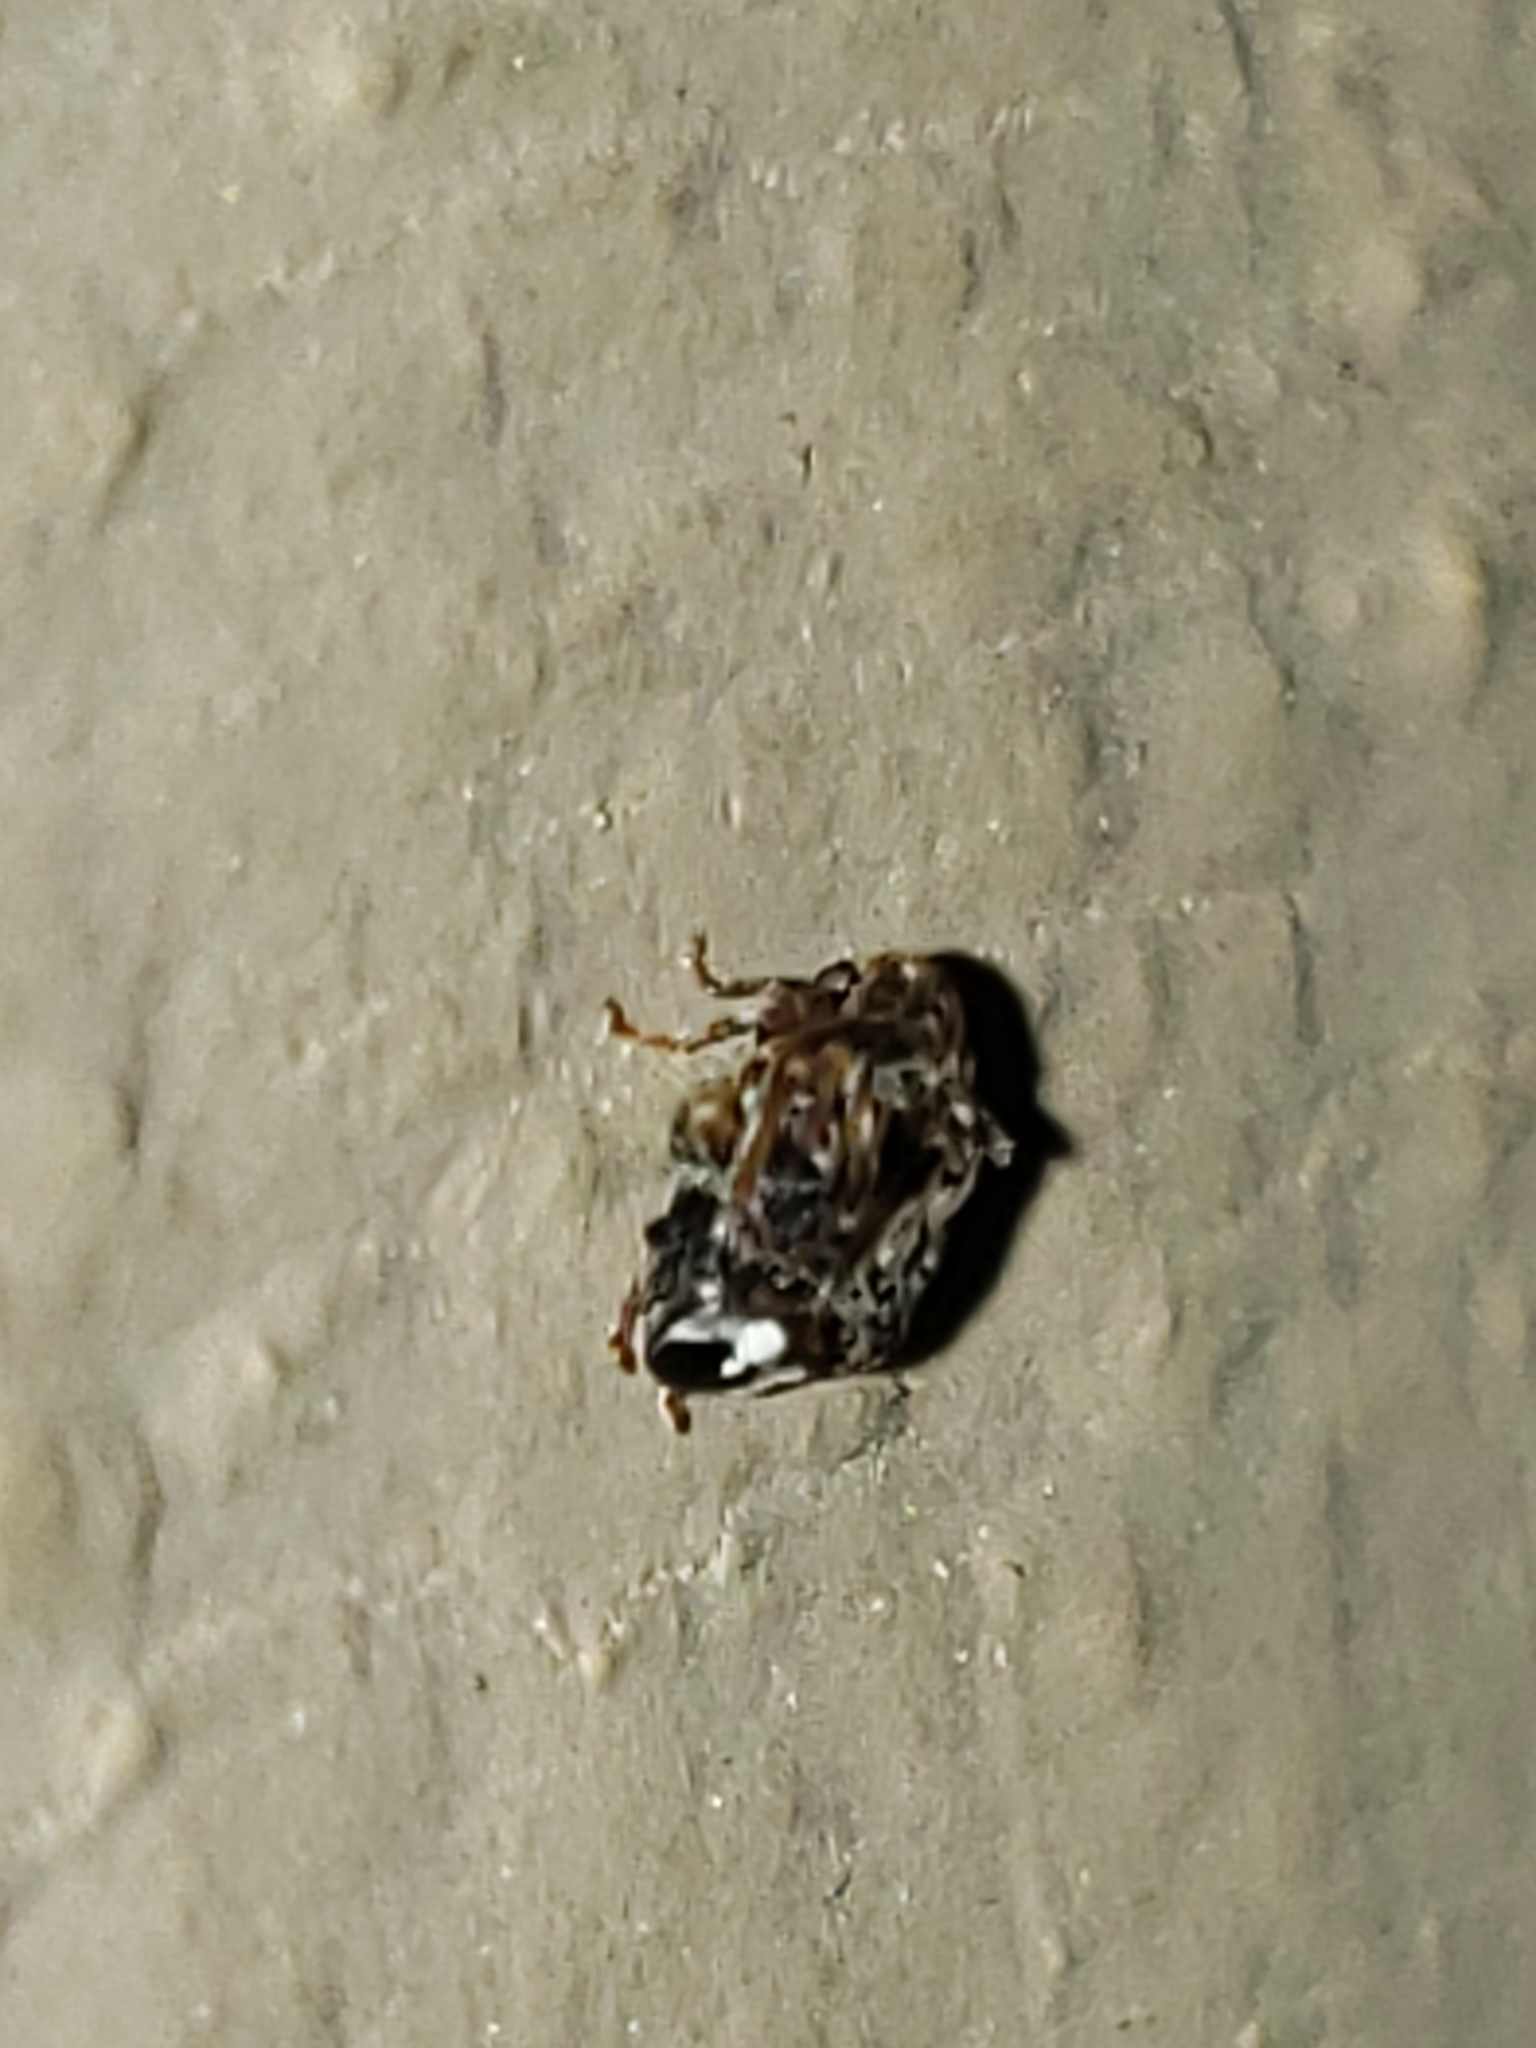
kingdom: Animalia
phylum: Arthropoda
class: Insecta
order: Coleoptera
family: Chrysomelidae
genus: Gibbobruchus
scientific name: Gibbobruchus mimus
